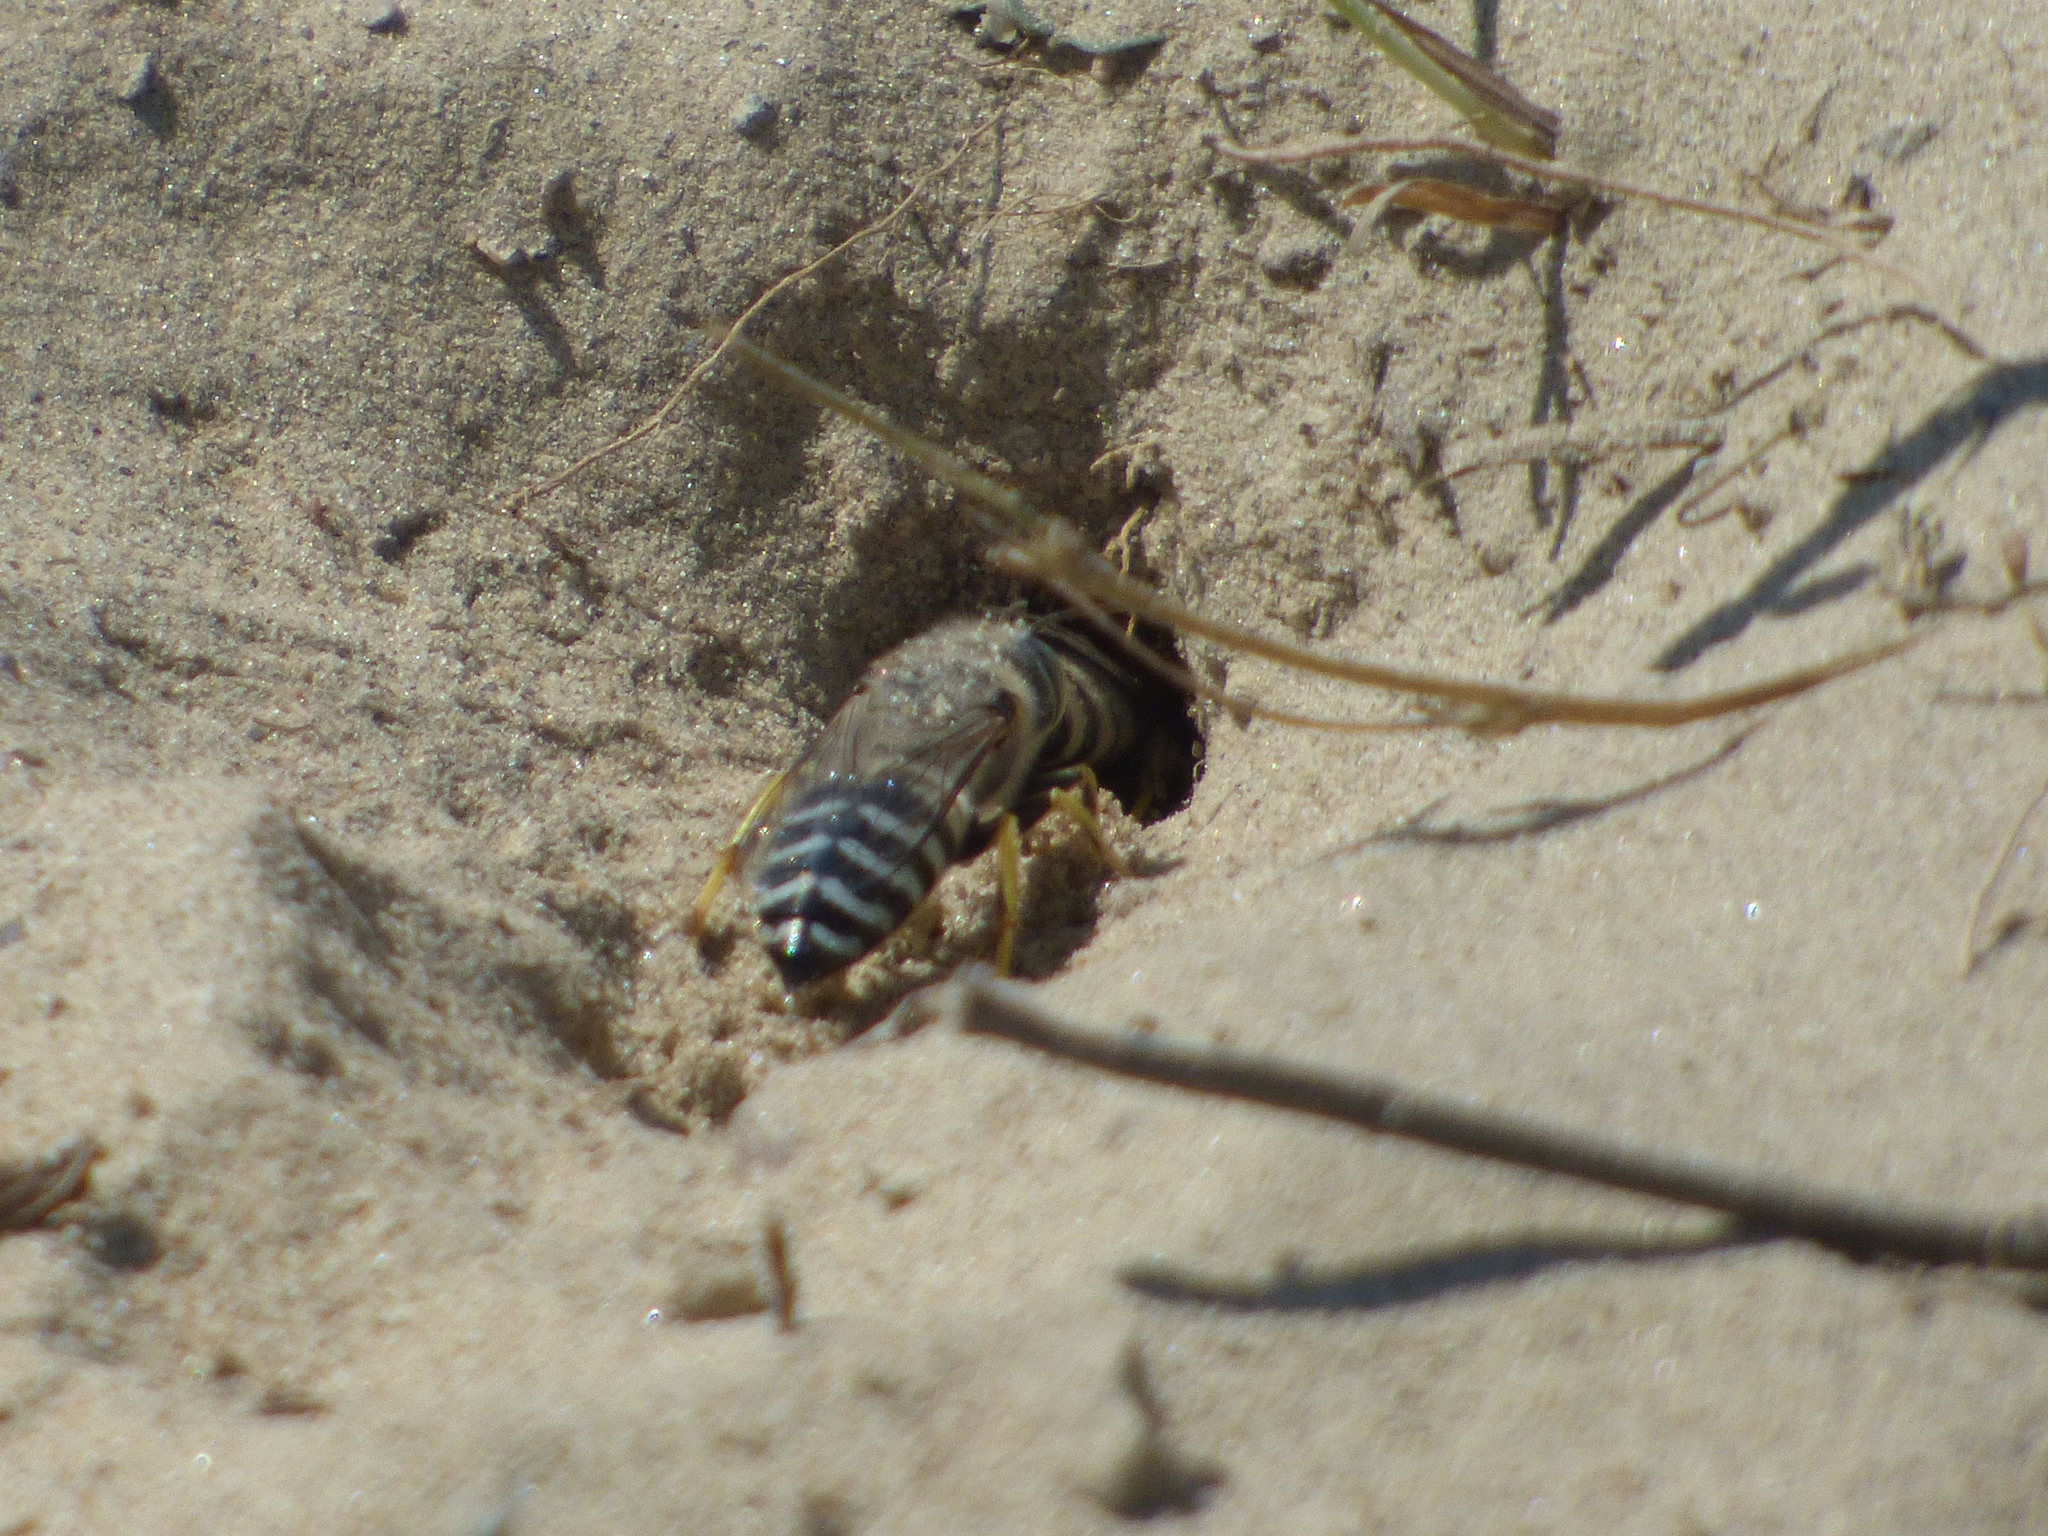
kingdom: Animalia
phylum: Arthropoda
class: Insecta
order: Hymenoptera
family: Crabronidae
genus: Bembix
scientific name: Bembix americana
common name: American sand wasp
